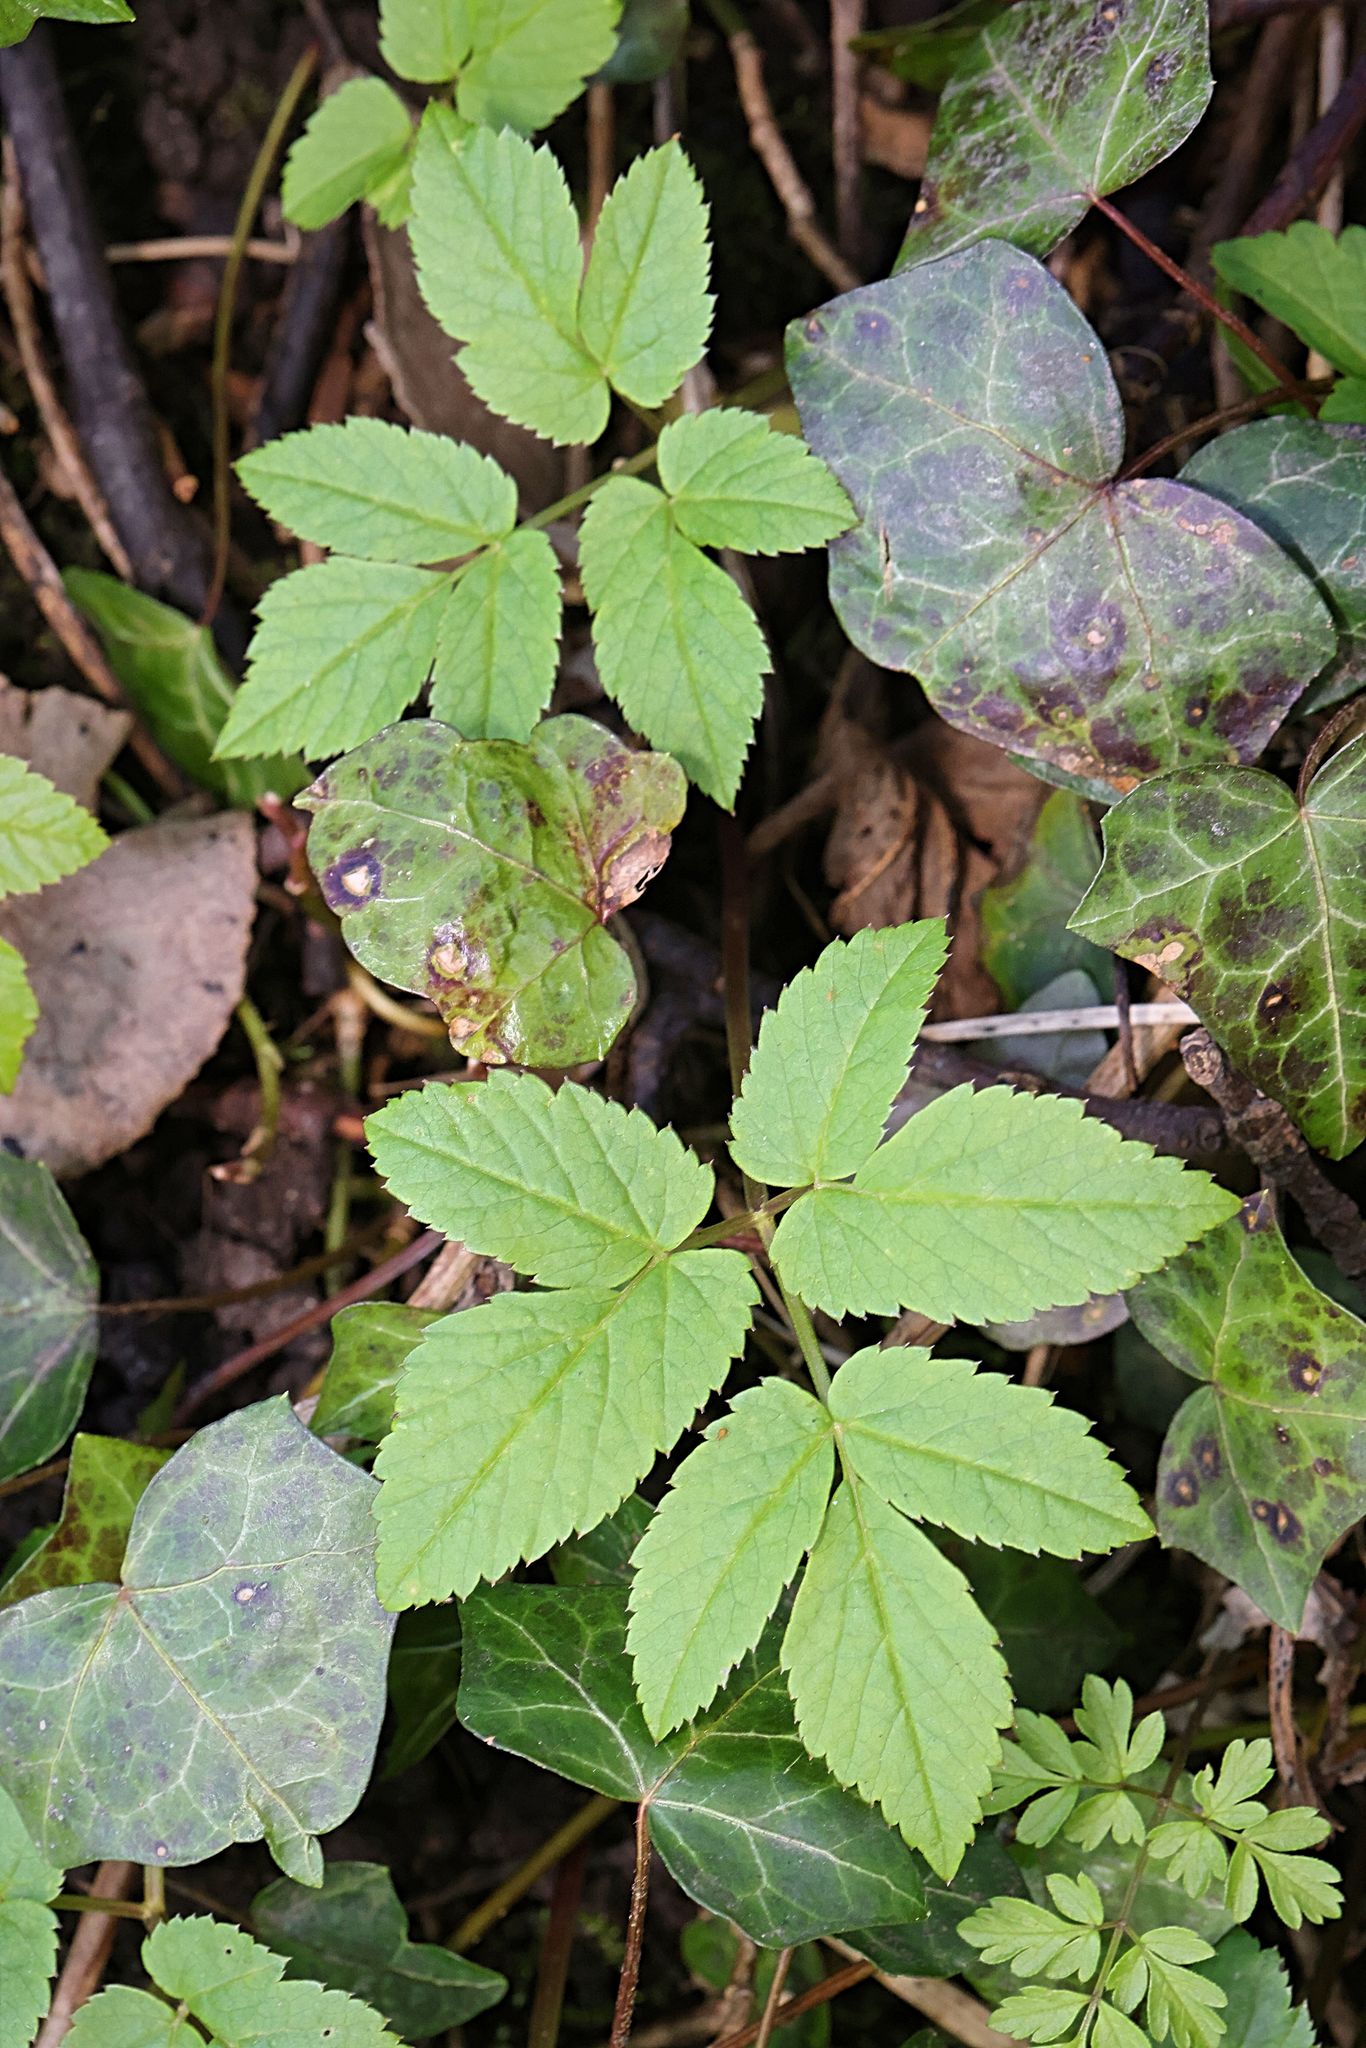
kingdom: Plantae
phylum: Tracheophyta
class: Magnoliopsida
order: Apiales
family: Apiaceae
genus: Aegopodium
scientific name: Aegopodium podagraria
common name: Ground-elder
